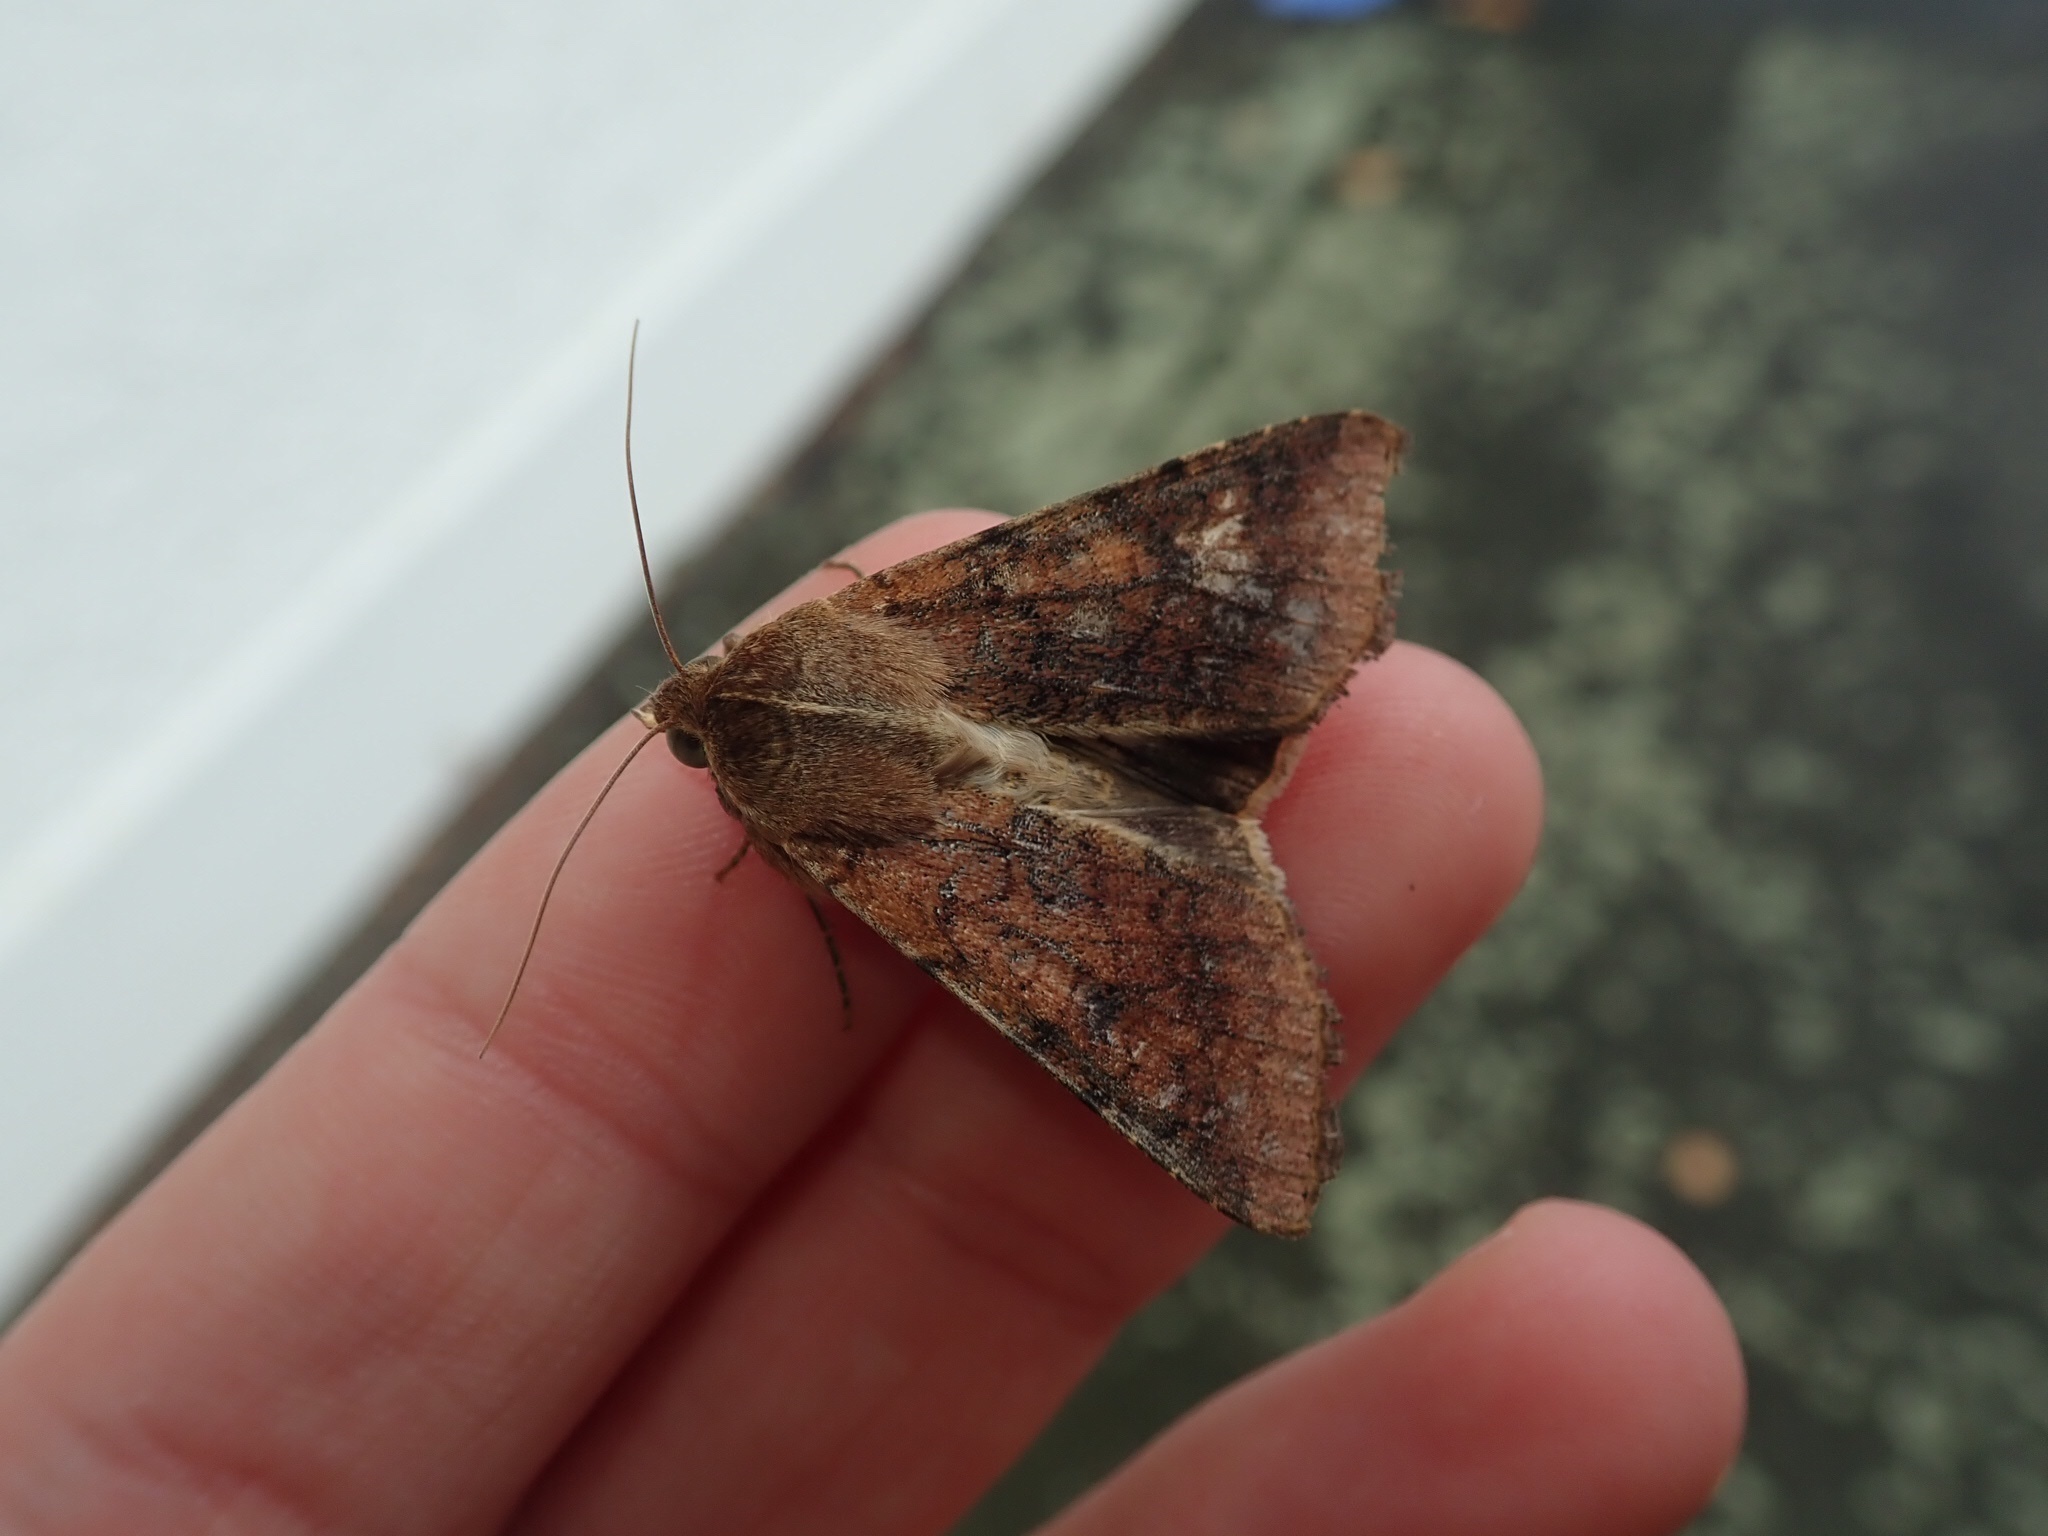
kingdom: Animalia
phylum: Arthropoda
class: Insecta
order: Lepidoptera
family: Noctuidae
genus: Helicoverpa
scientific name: Helicoverpa armigera
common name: Cotton bollworm
